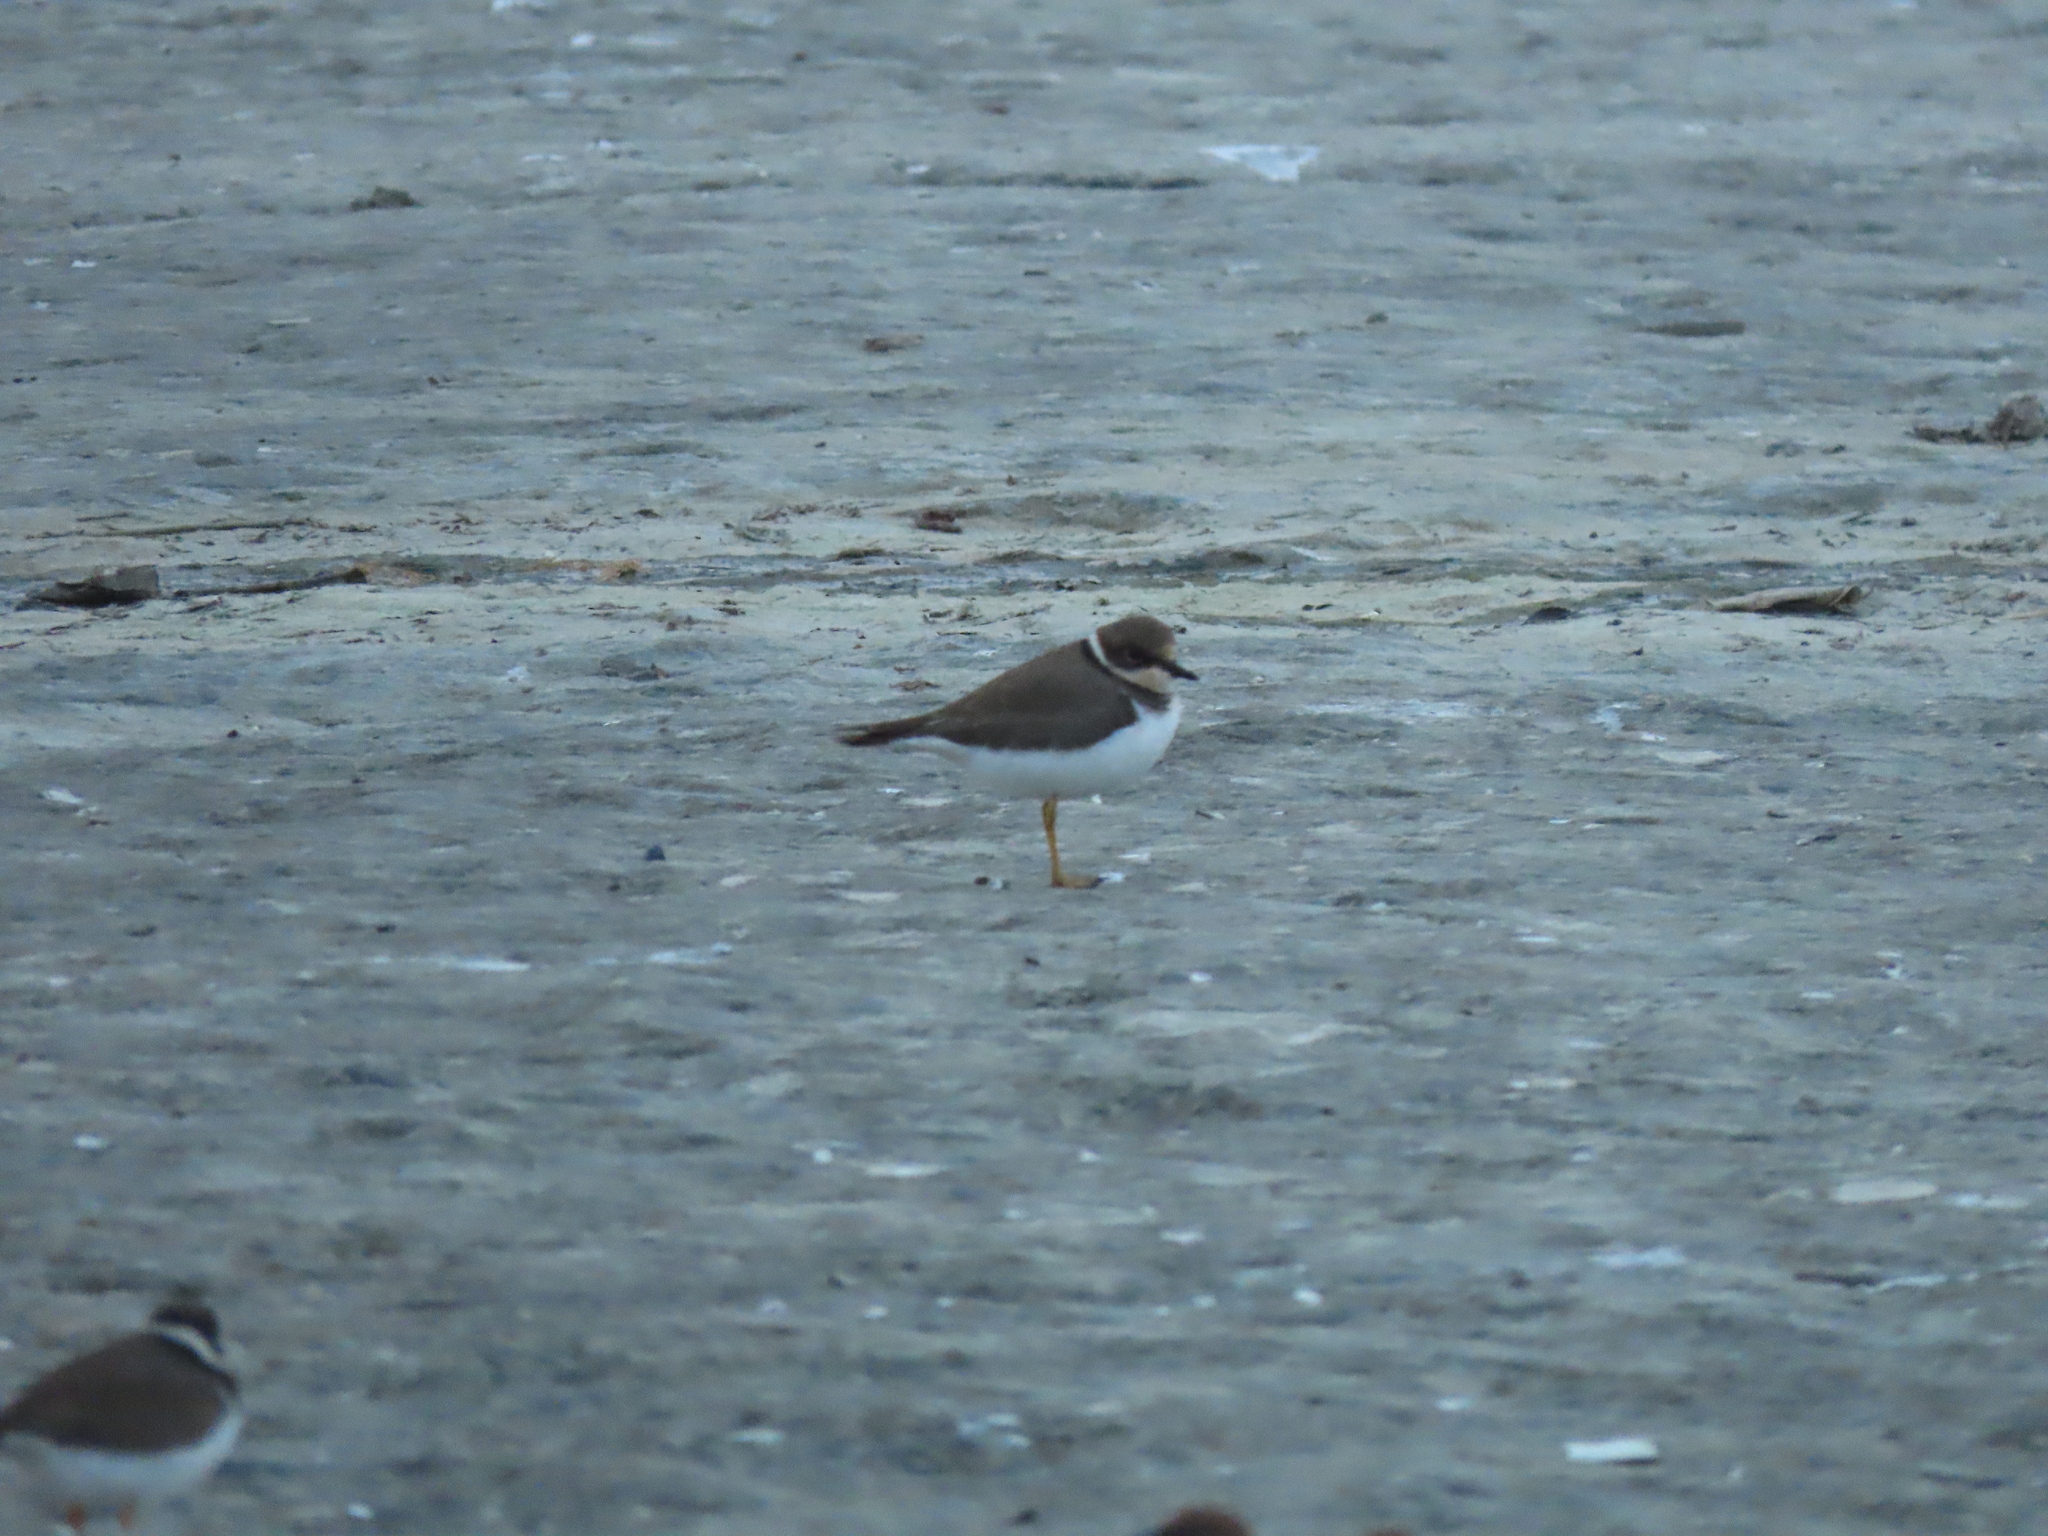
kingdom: Animalia
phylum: Chordata
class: Aves
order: Charadriiformes
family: Charadriidae
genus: Charadrius
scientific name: Charadrius dubius
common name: Little ringed plover
